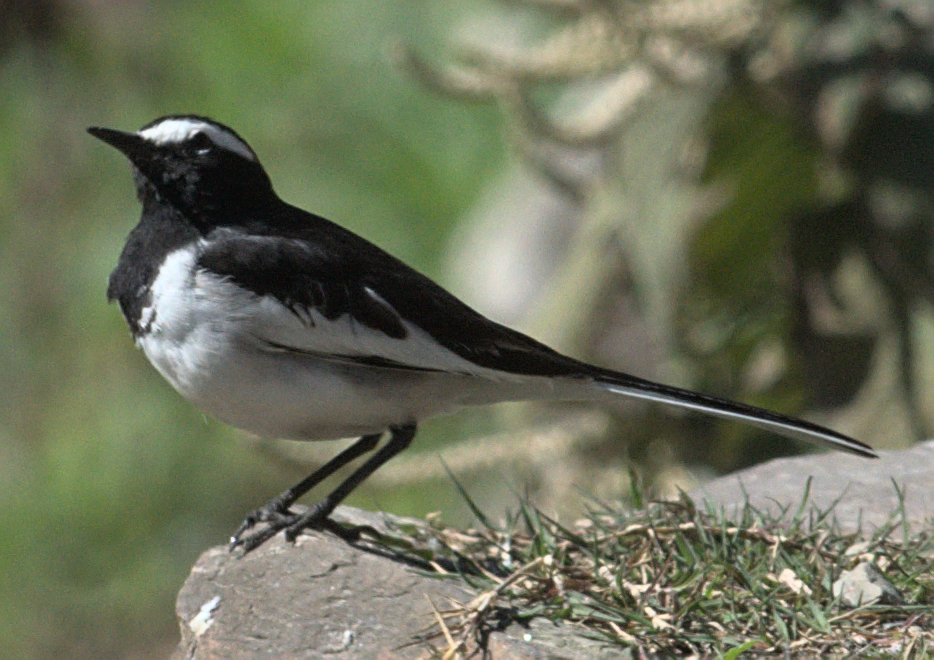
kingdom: Animalia
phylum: Chordata
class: Aves
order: Passeriformes
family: Motacillidae
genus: Motacilla
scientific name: Motacilla maderaspatensis
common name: White-browed wagtail
